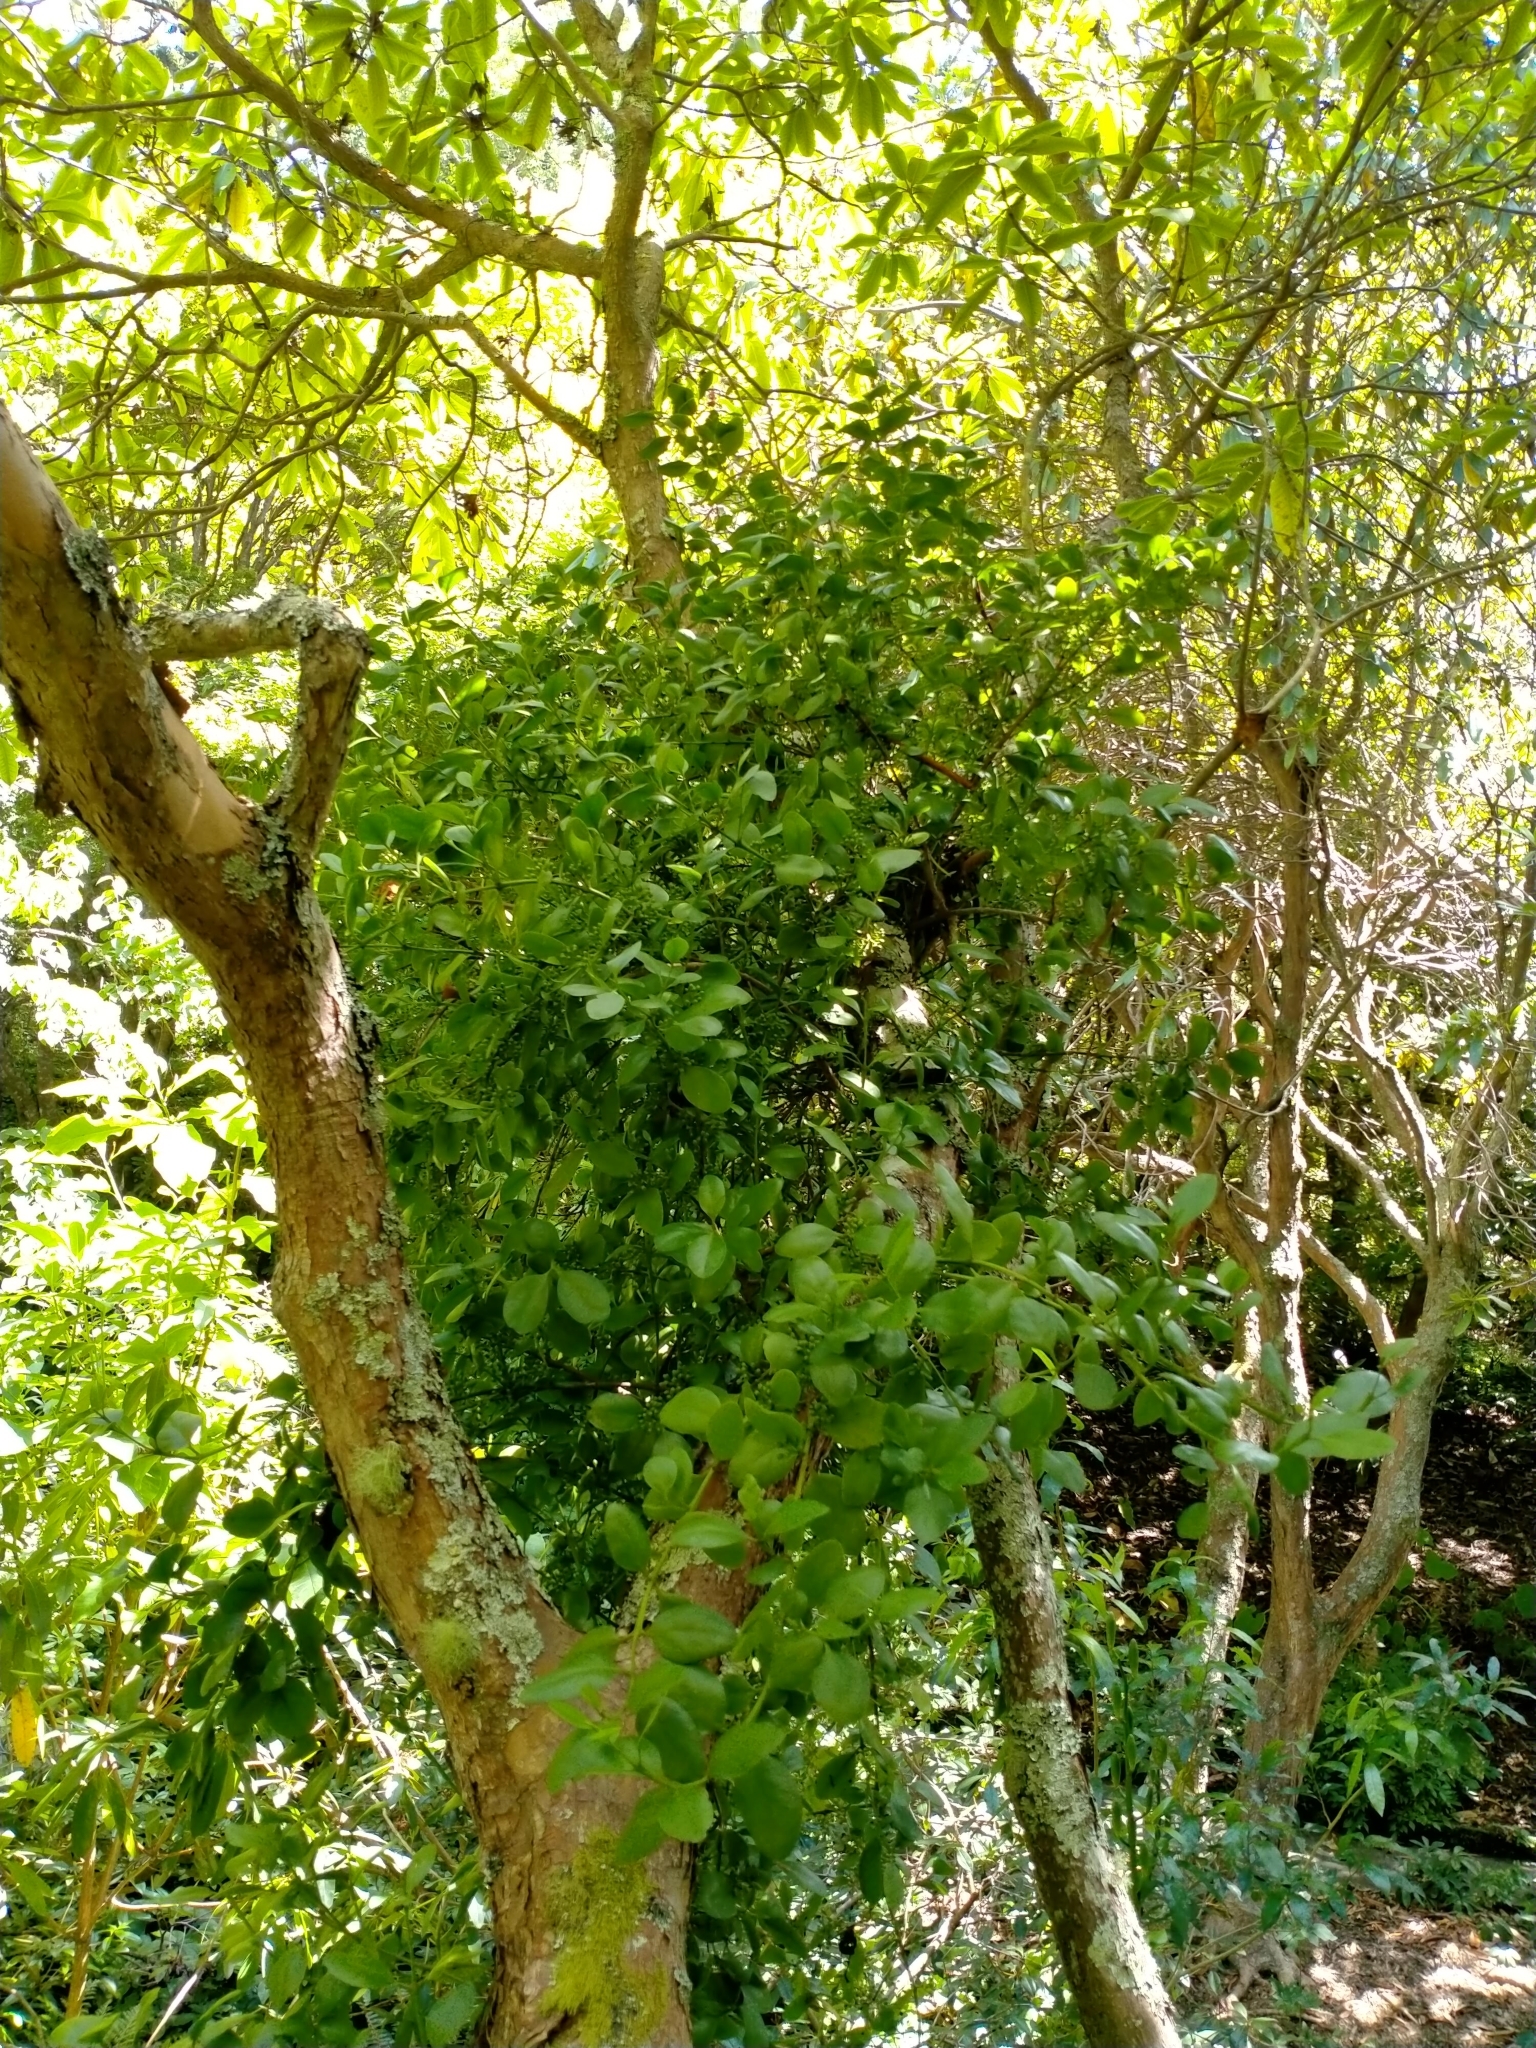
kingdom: Plantae
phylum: Tracheophyta
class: Magnoliopsida
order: Santalales
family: Loranthaceae
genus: Ileostylus
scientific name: Ileostylus micranthus
